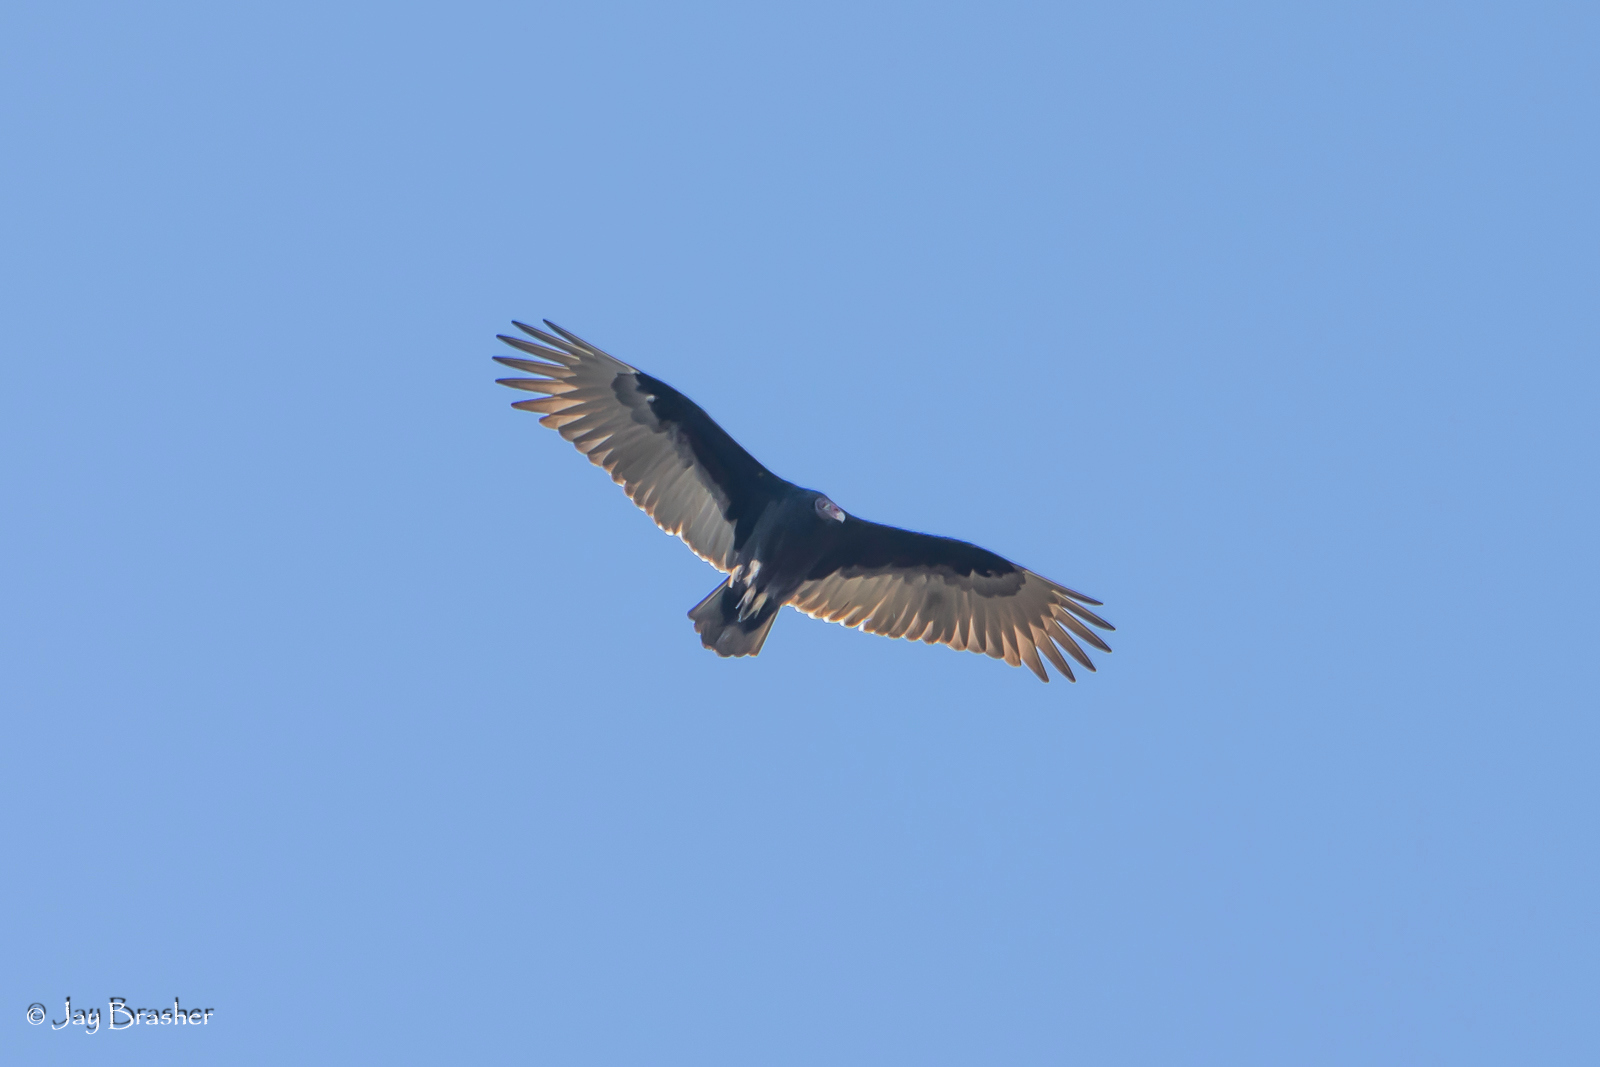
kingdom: Animalia
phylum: Chordata
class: Aves
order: Accipitriformes
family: Cathartidae
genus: Cathartes
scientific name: Cathartes aura
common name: Turkey vulture
